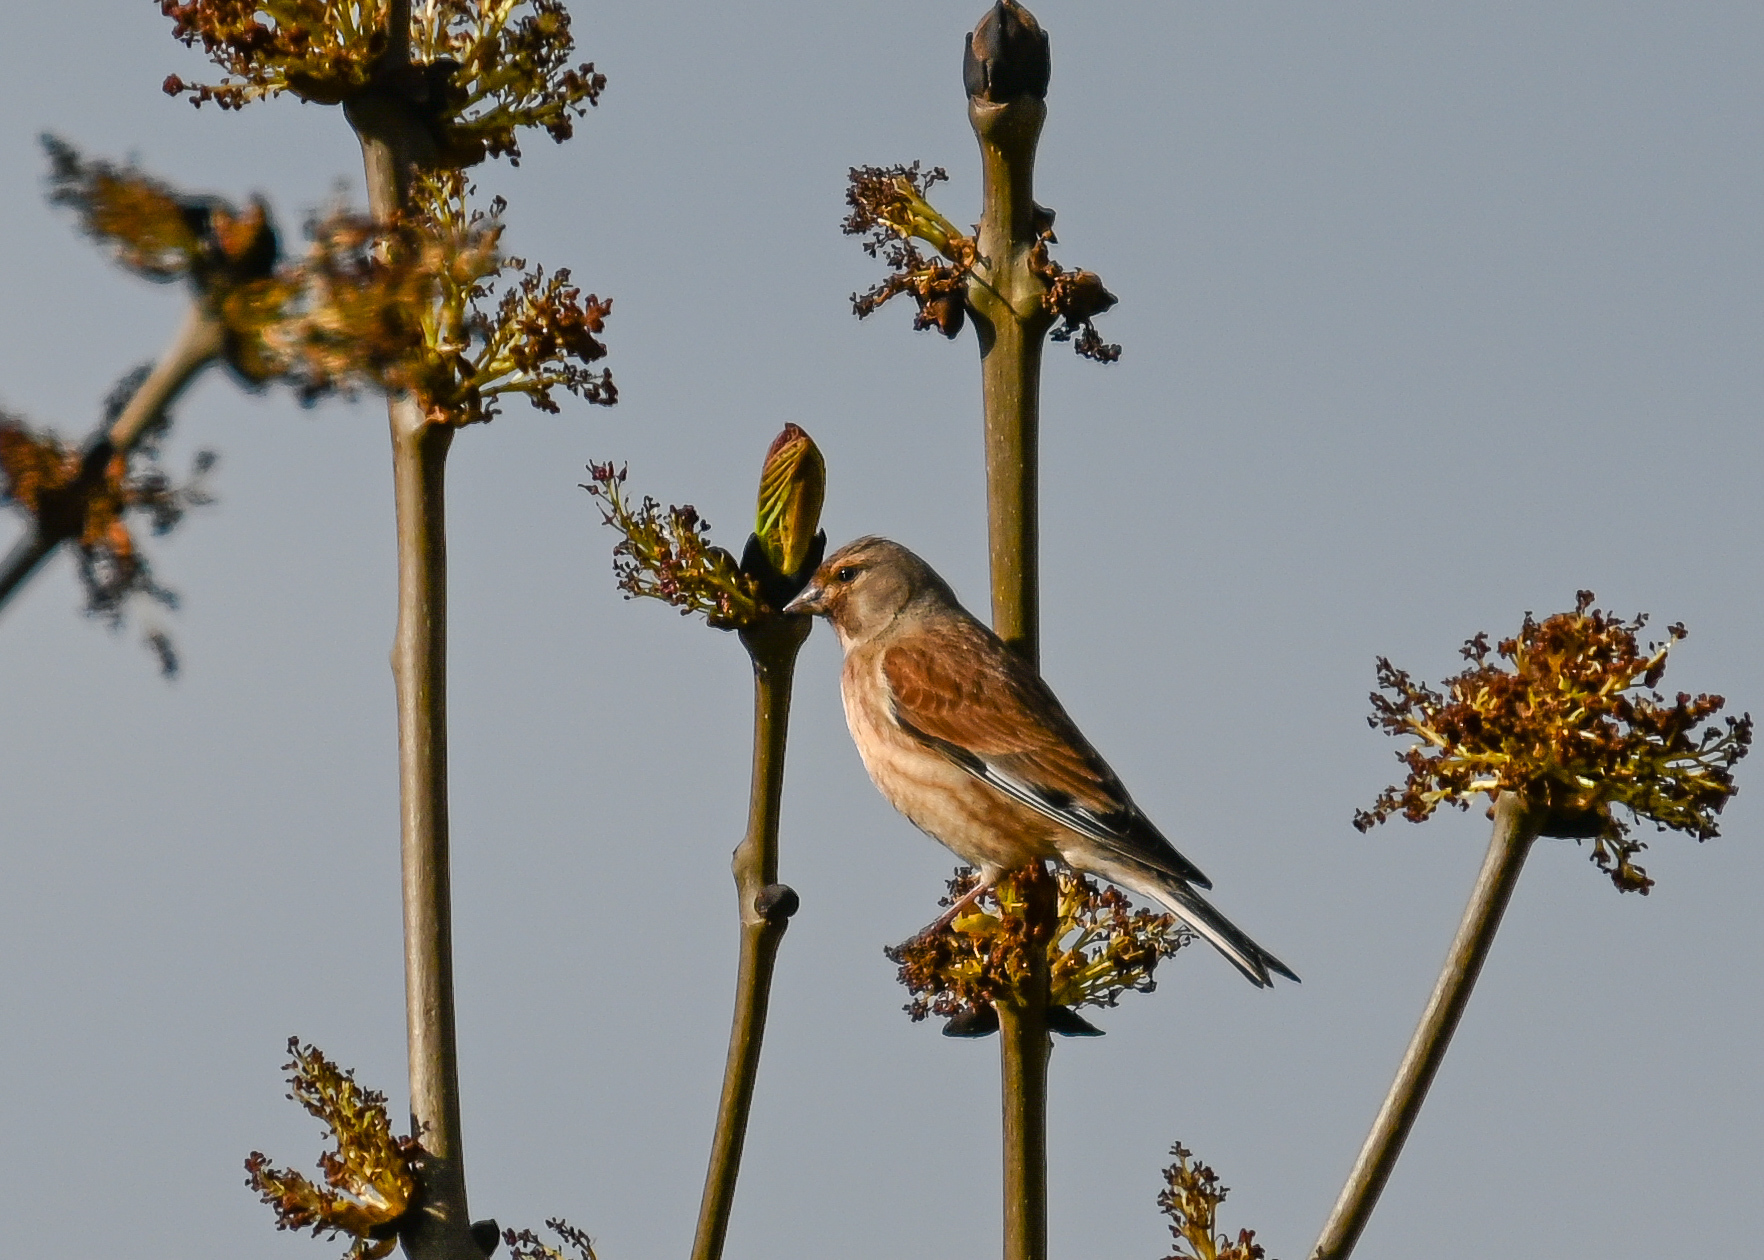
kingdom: Animalia
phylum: Chordata
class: Aves
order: Passeriformes
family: Fringillidae
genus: Linaria
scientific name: Linaria cannabina
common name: Common linnet
